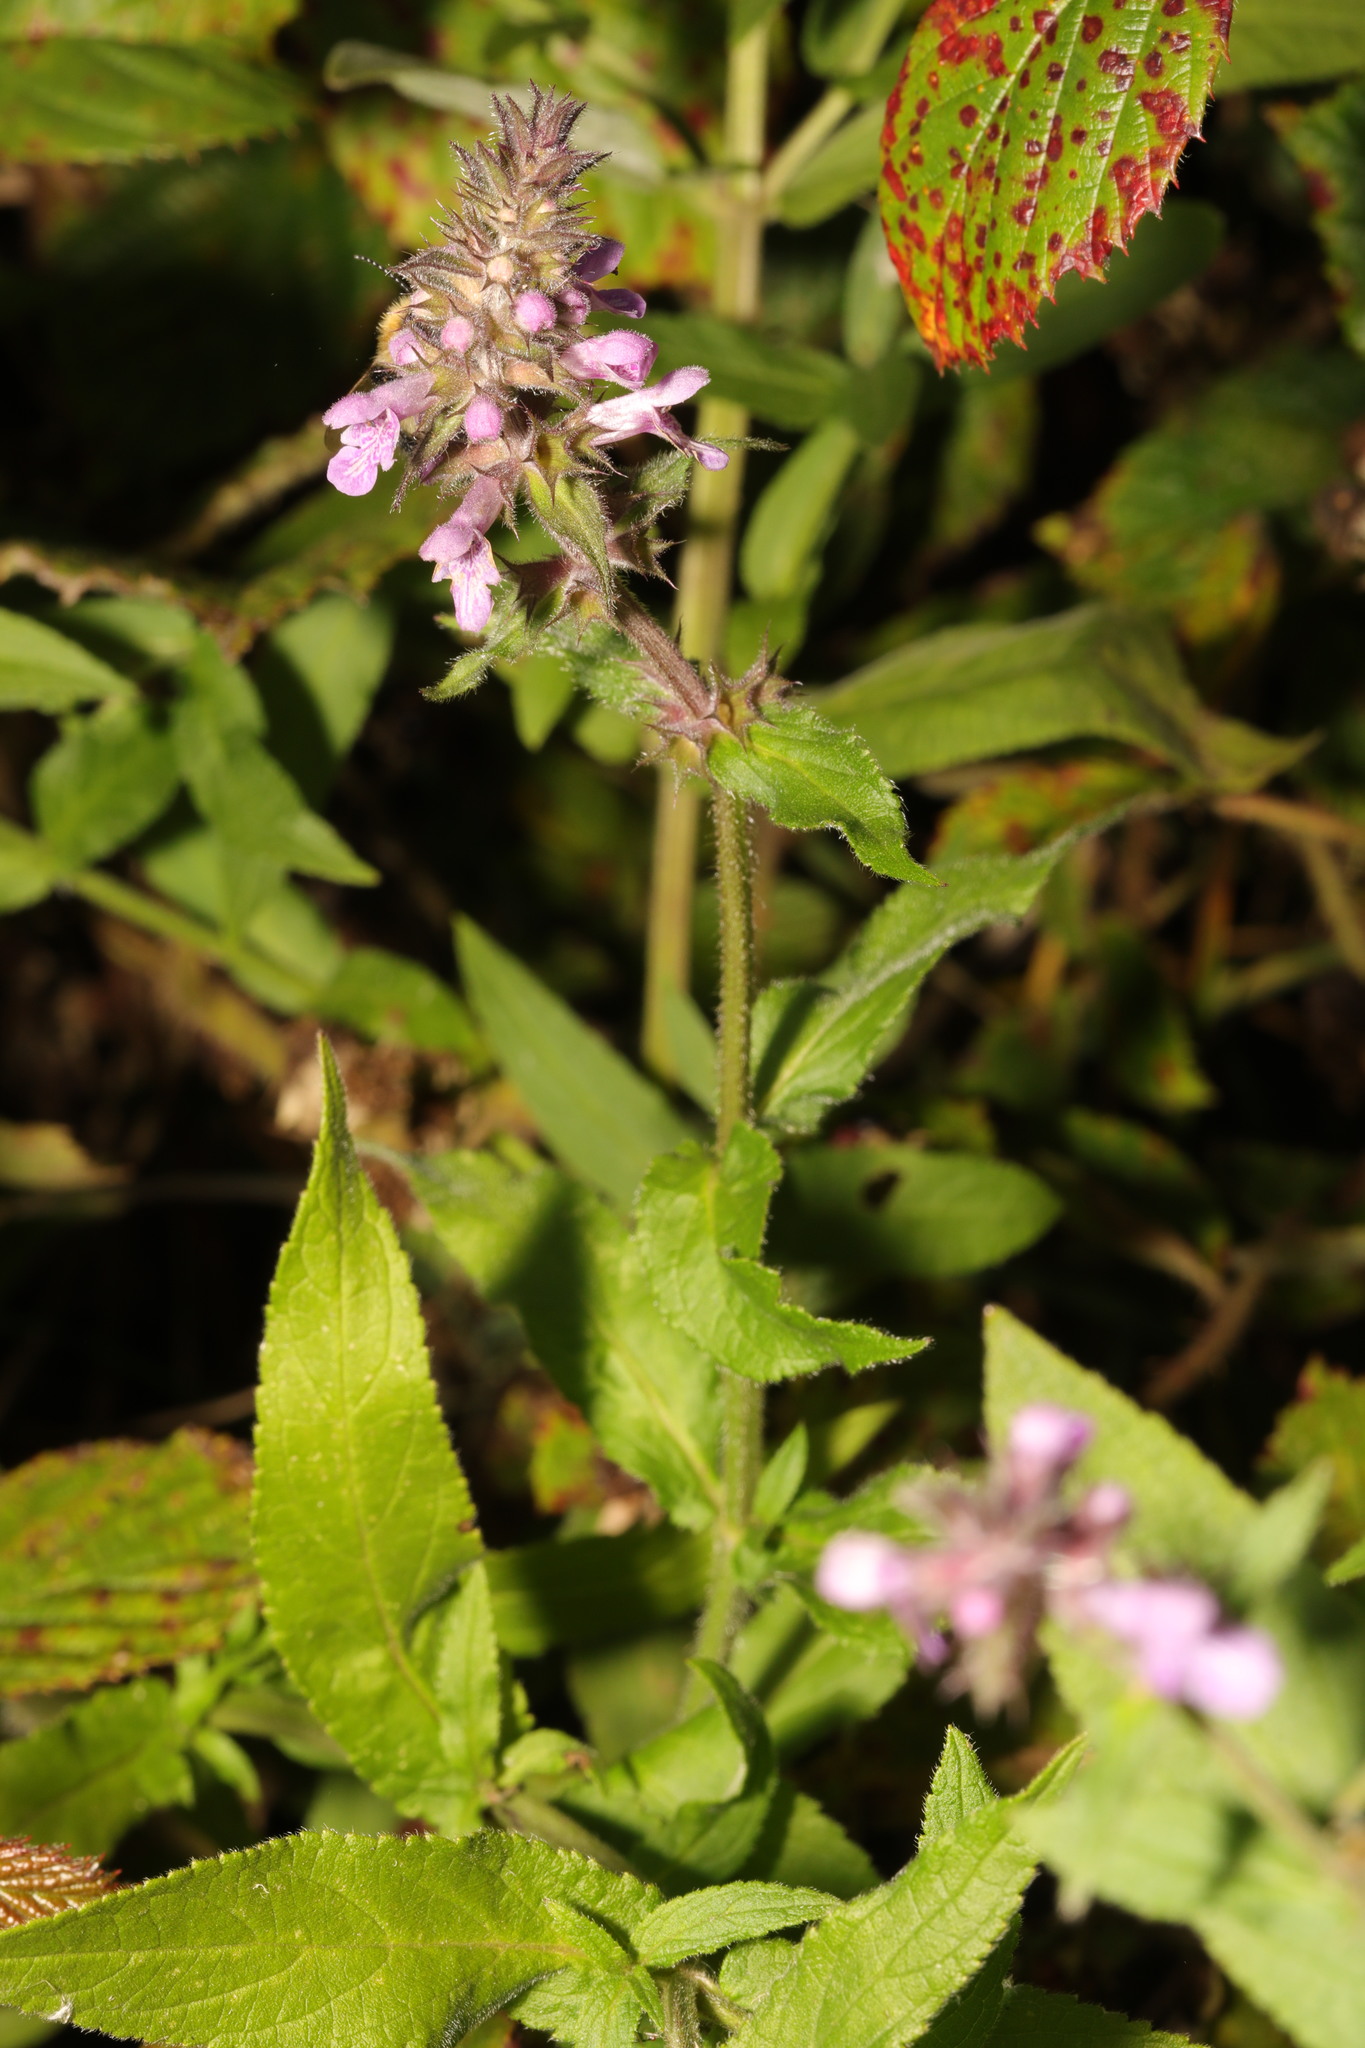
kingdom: Plantae
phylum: Tracheophyta
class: Magnoliopsida
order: Lamiales
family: Lamiaceae
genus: Stachys
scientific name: Stachys palustris
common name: Marsh woundwort
